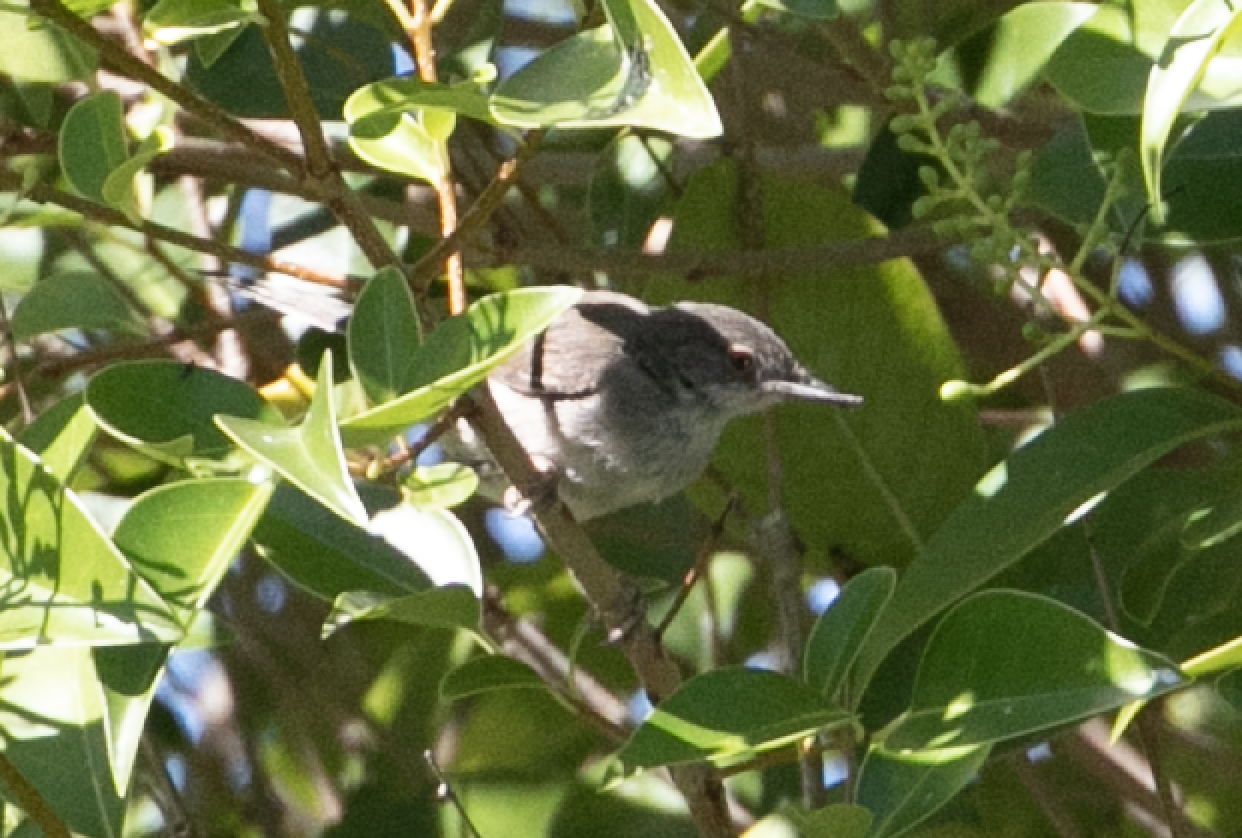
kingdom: Animalia
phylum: Chordata
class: Aves
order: Passeriformes
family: Sylviidae
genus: Curruca
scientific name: Curruca melanocephala
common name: Sardinian warbler
